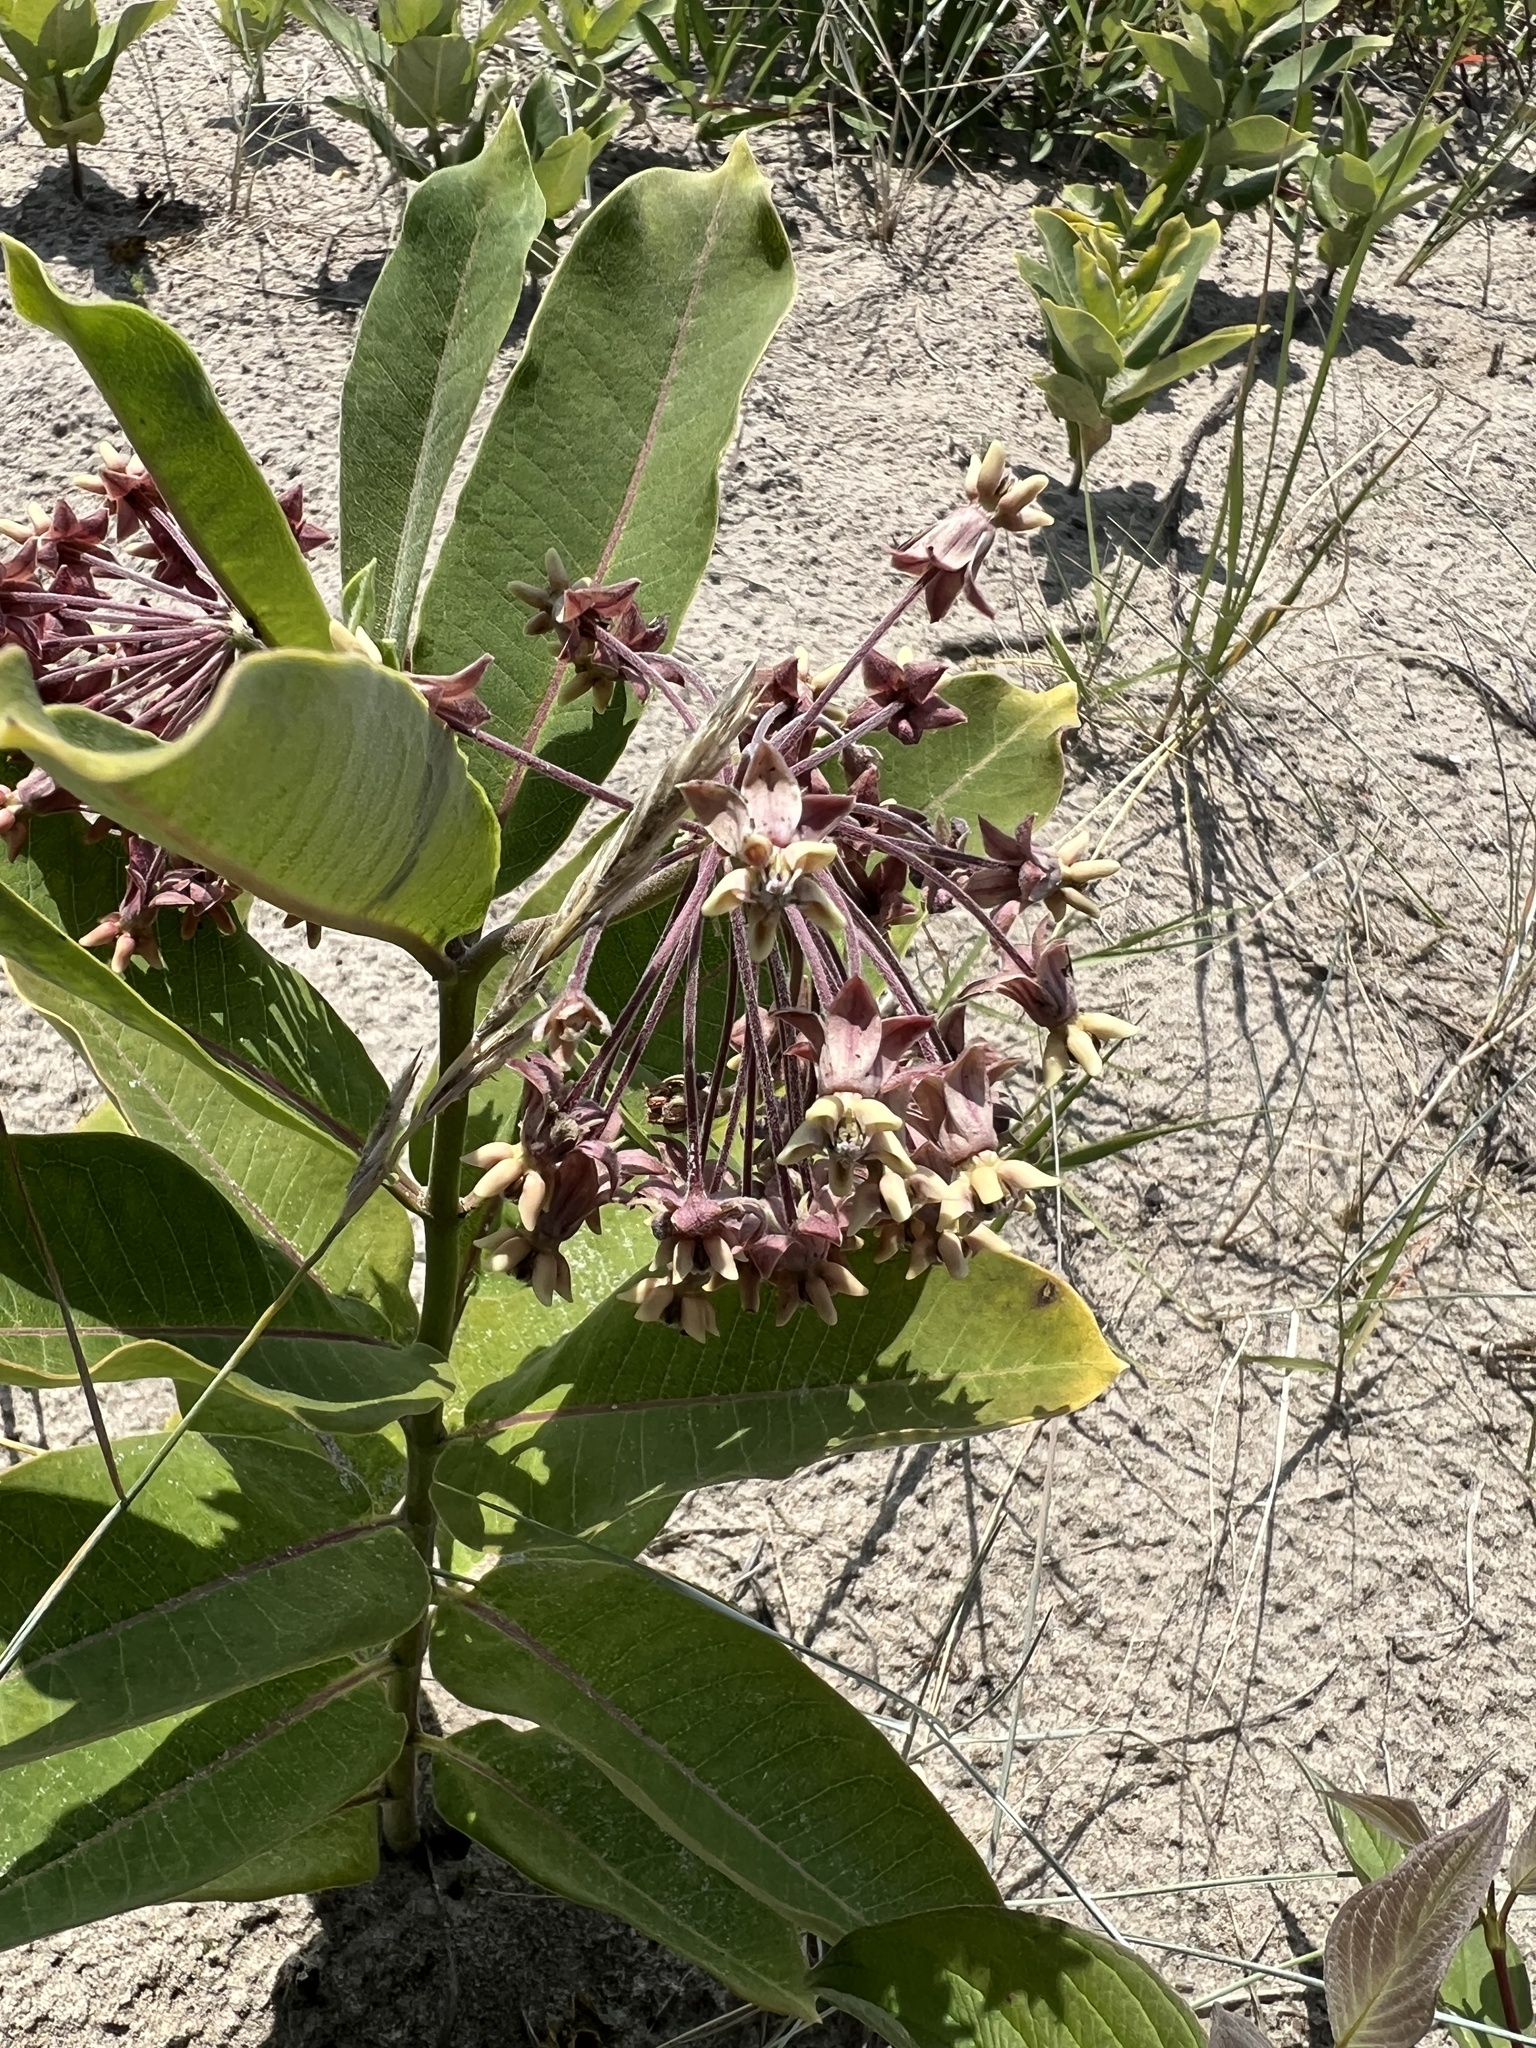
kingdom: Plantae
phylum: Tracheophyta
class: Magnoliopsida
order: Gentianales
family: Apocynaceae
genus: Asclepias
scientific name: Asclepias syriaca
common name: Common milkweed
